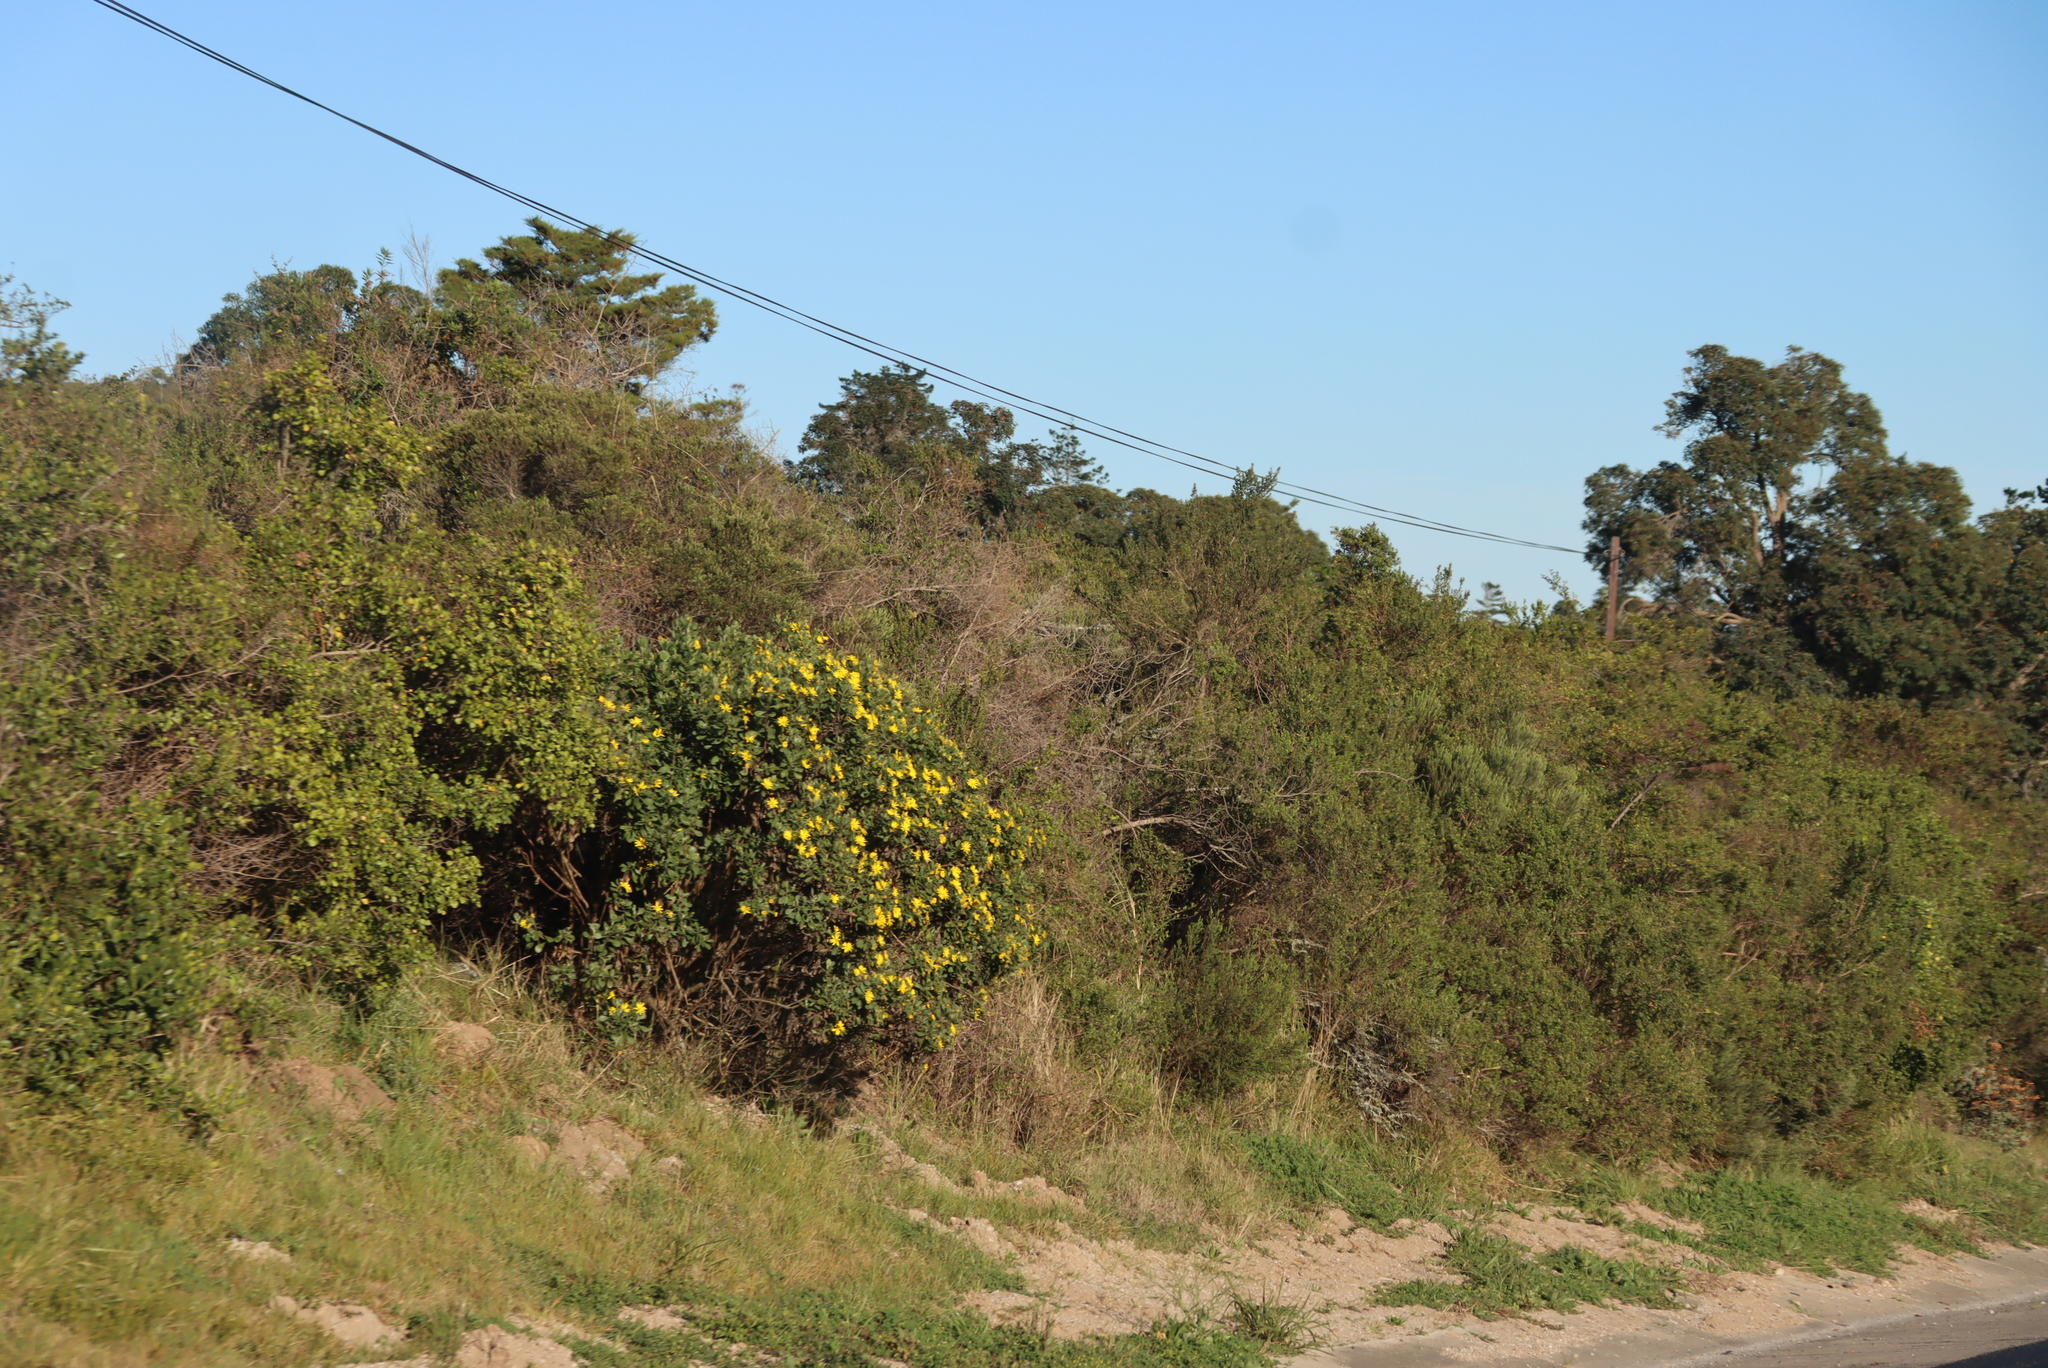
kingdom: Plantae
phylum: Tracheophyta
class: Magnoliopsida
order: Asterales
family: Asteraceae
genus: Osteospermum
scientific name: Osteospermum moniliferum
